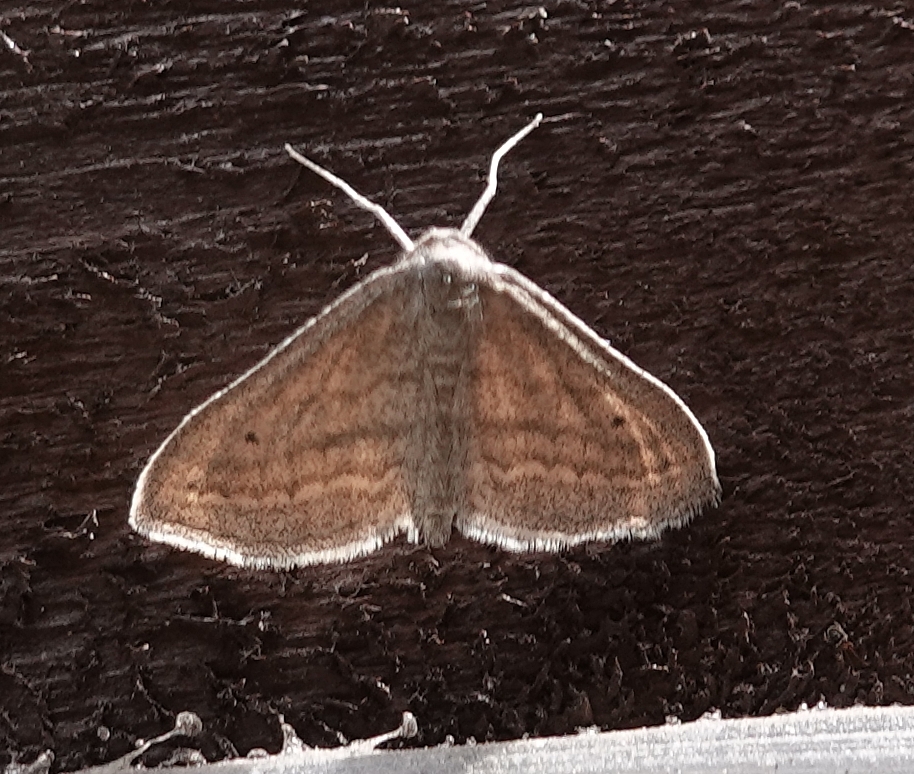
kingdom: Animalia
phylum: Arthropoda
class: Insecta
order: Lepidoptera
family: Geometridae
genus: Lobocleta
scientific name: Lobocleta plemyraria
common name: Straight-lined wave
